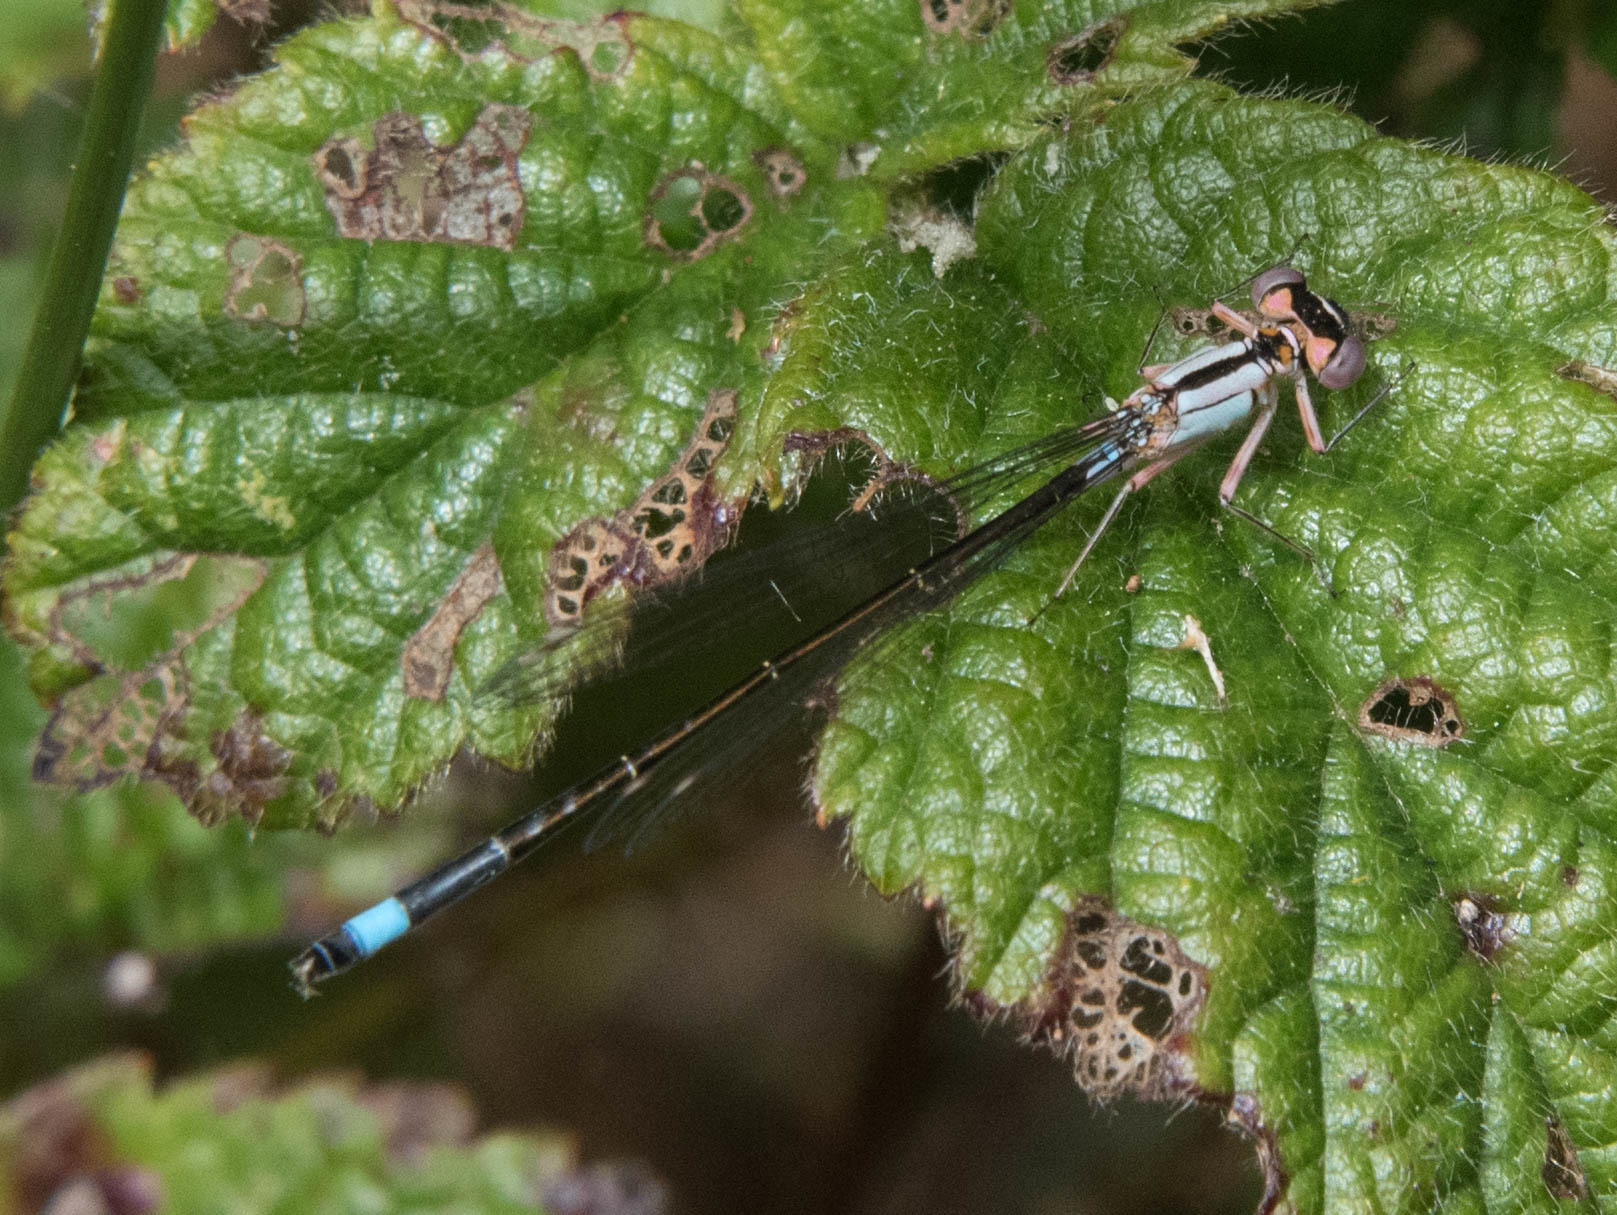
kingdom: Animalia
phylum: Arthropoda
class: Insecta
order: Odonata
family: Coenagrionidae
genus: Ischnura
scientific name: Ischnura cervula
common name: Pacific forktail
